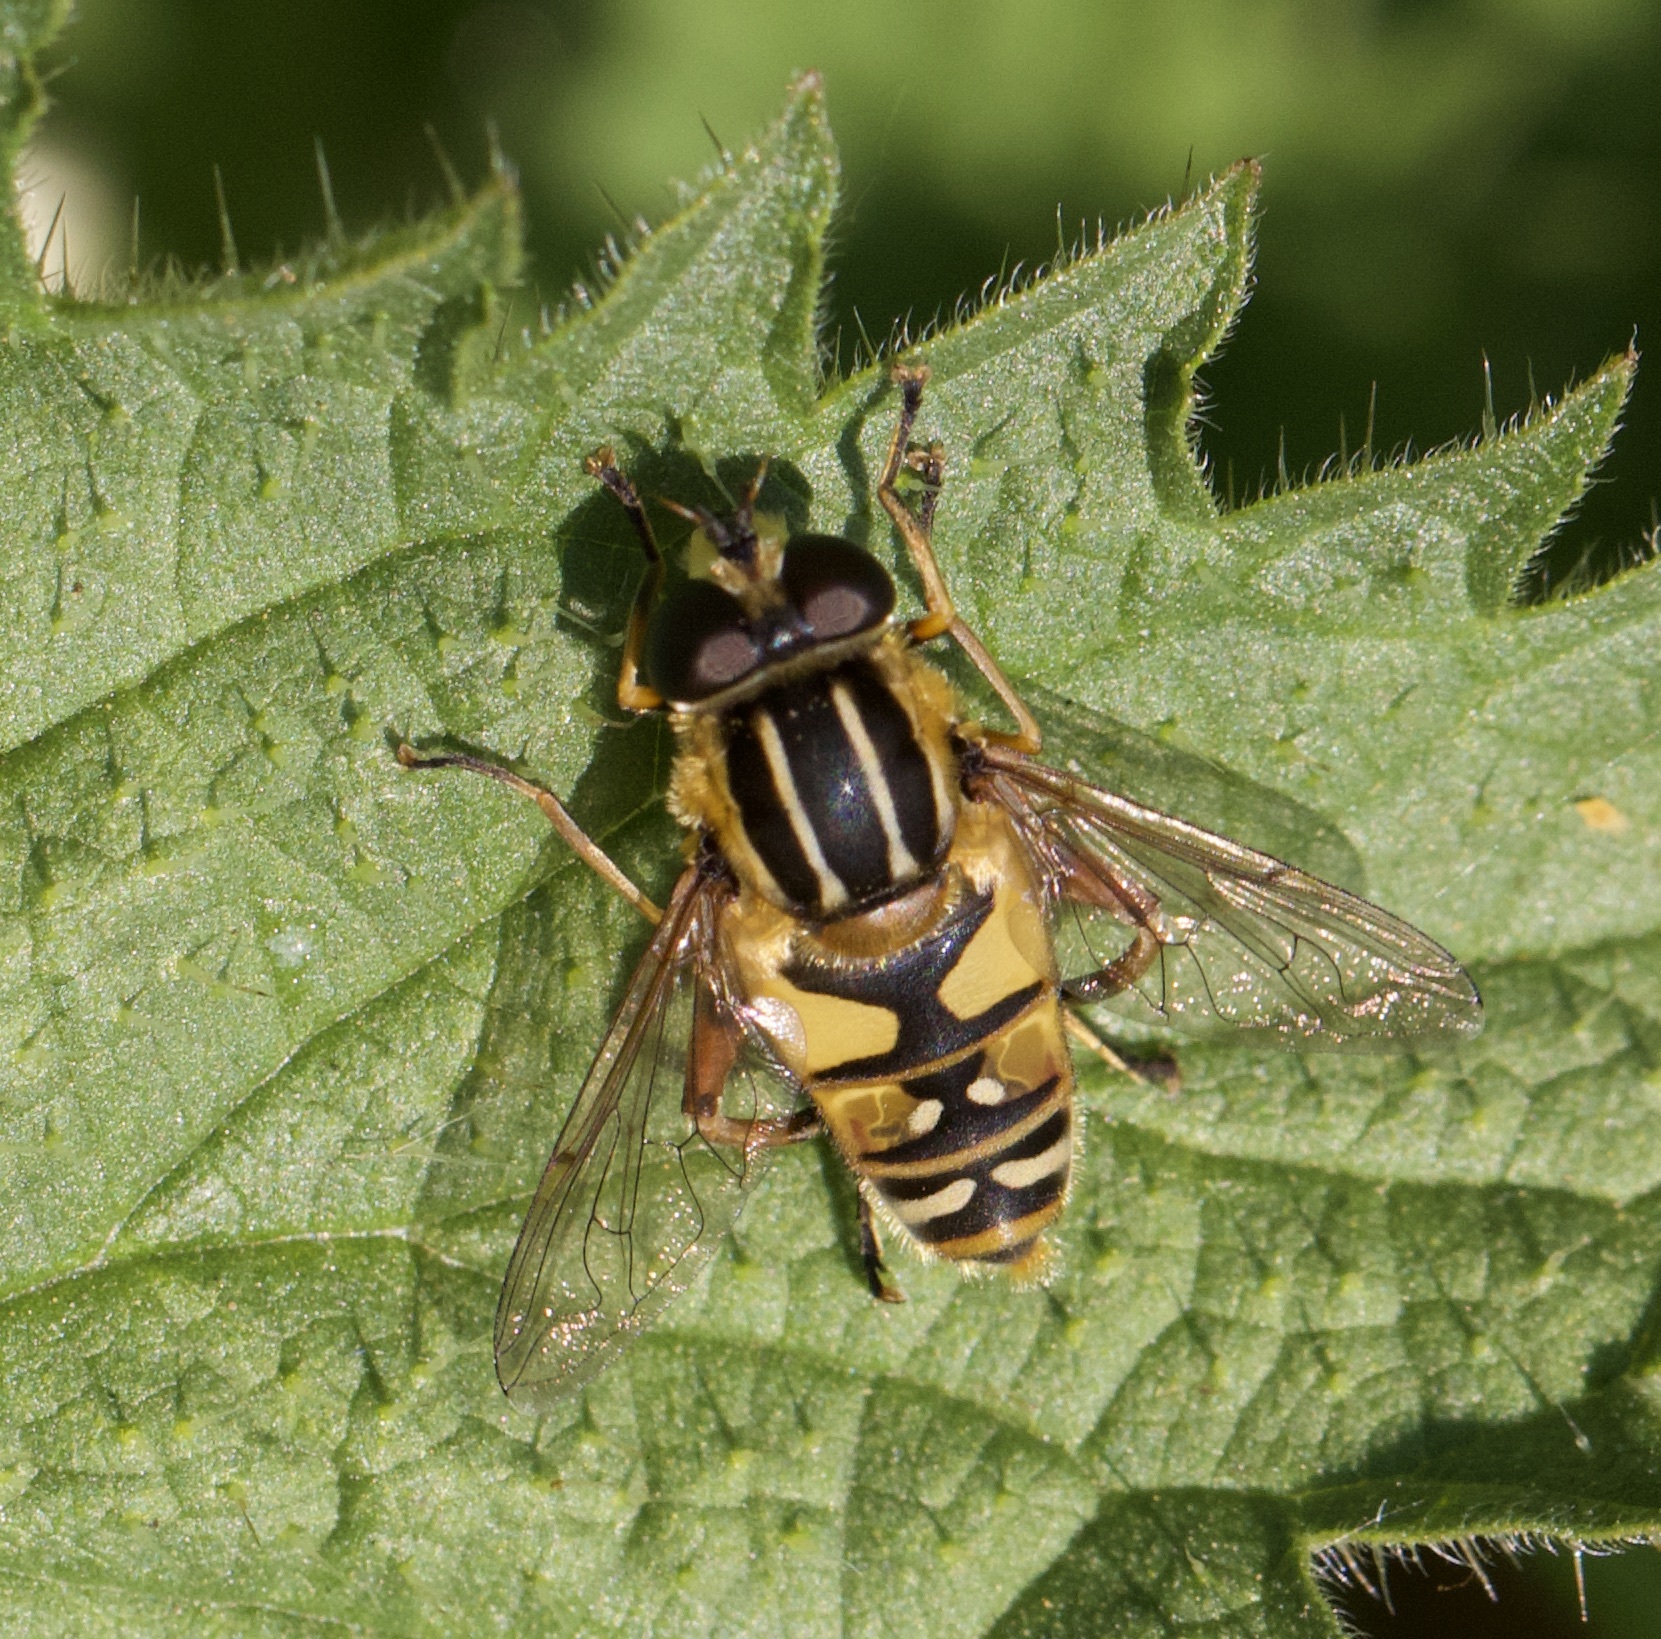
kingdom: Animalia
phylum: Arthropoda
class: Insecta
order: Diptera
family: Syrphidae
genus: Helophilus
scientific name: Helophilus pendulus
